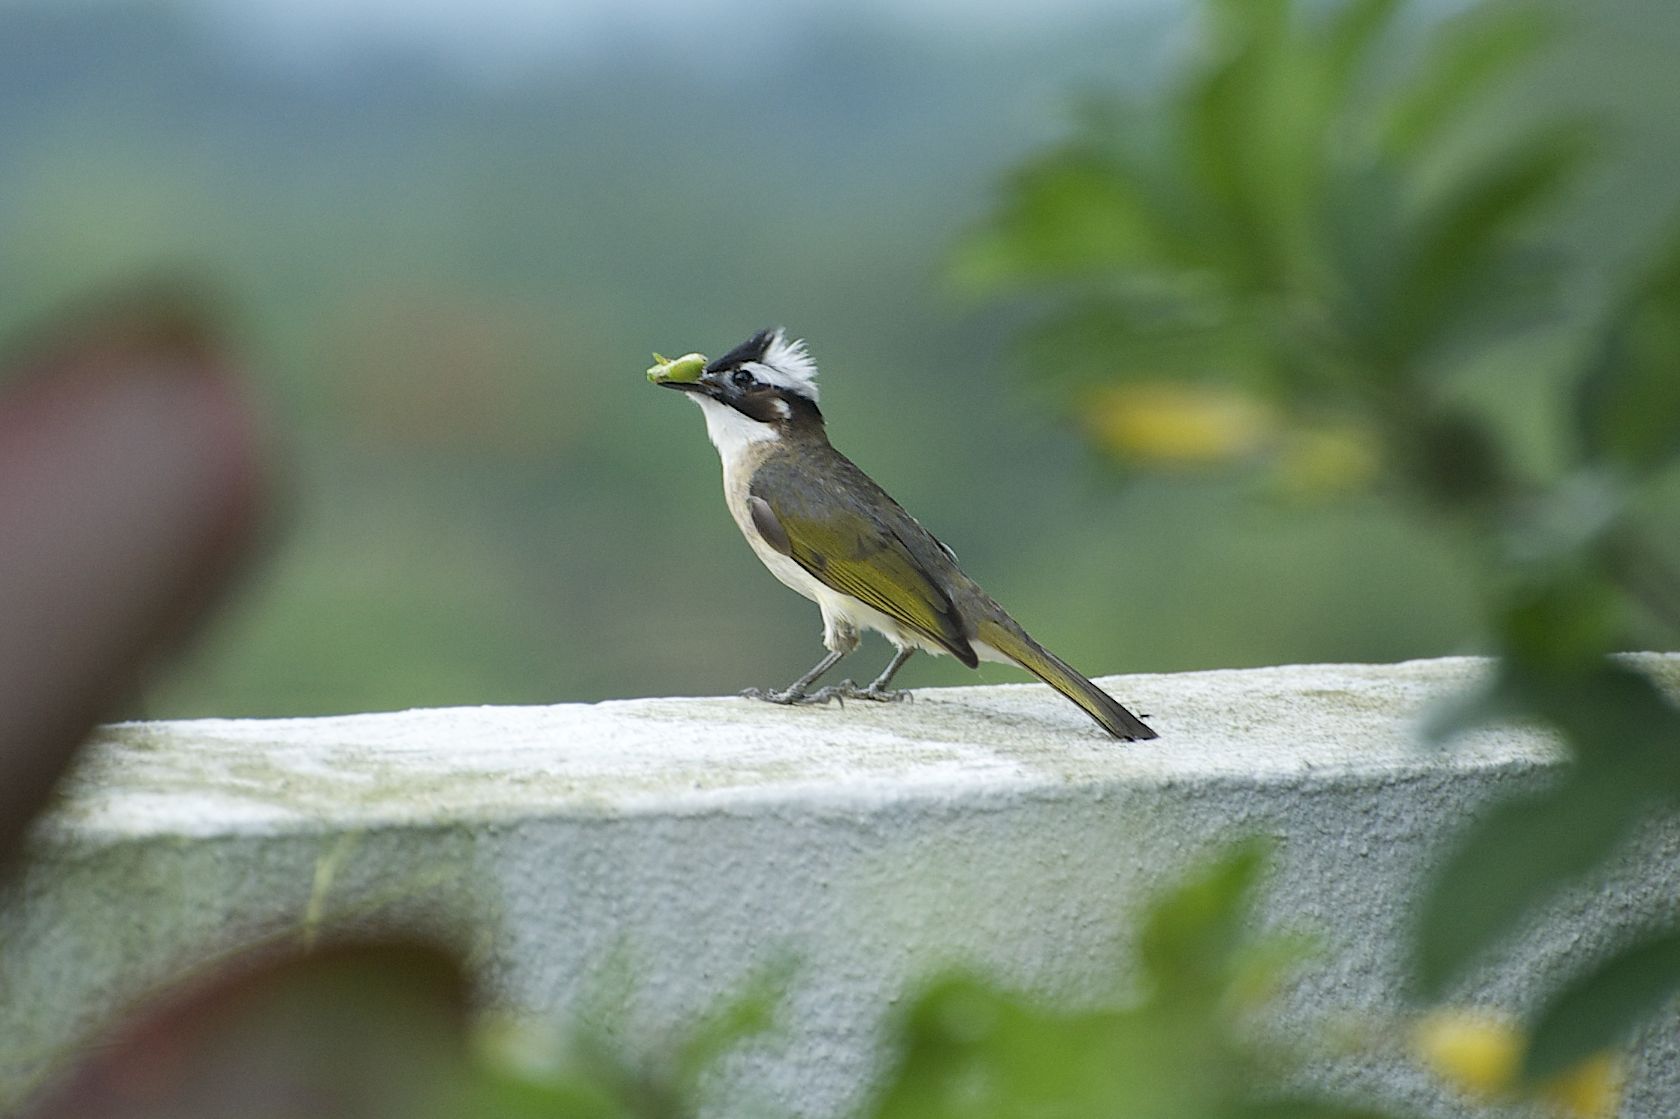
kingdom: Animalia
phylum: Chordata
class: Aves
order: Passeriformes
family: Pycnonotidae
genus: Pycnonotus
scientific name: Pycnonotus sinensis
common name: Light-vented bulbul
